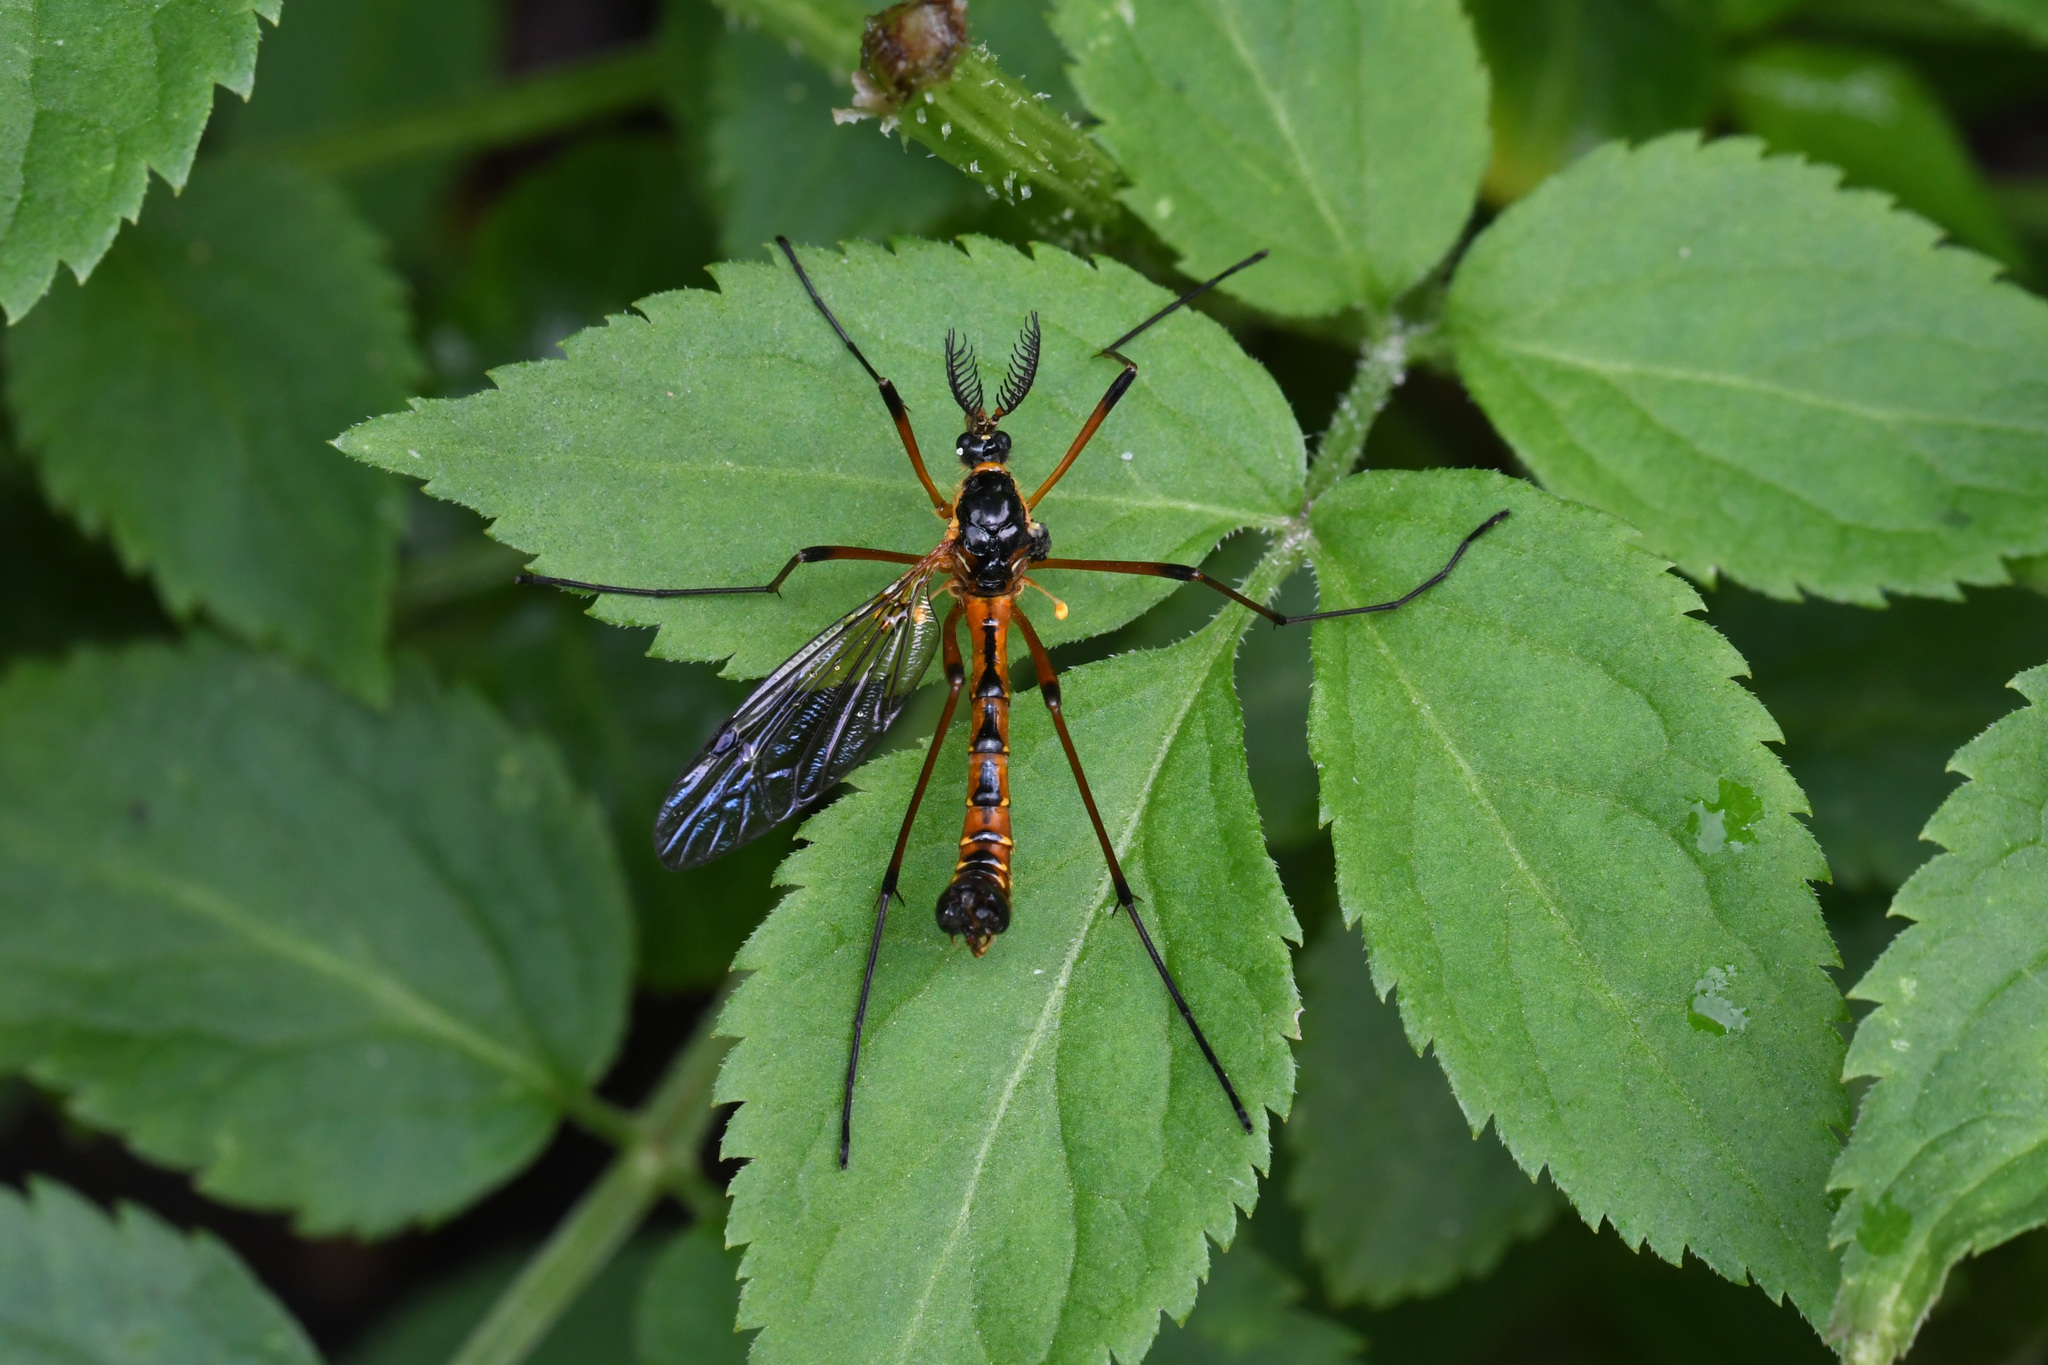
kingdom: Animalia
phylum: Arthropoda
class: Insecta
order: Diptera
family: Tipulidae
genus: Ctenophora
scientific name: Ctenophora pectinicornis
